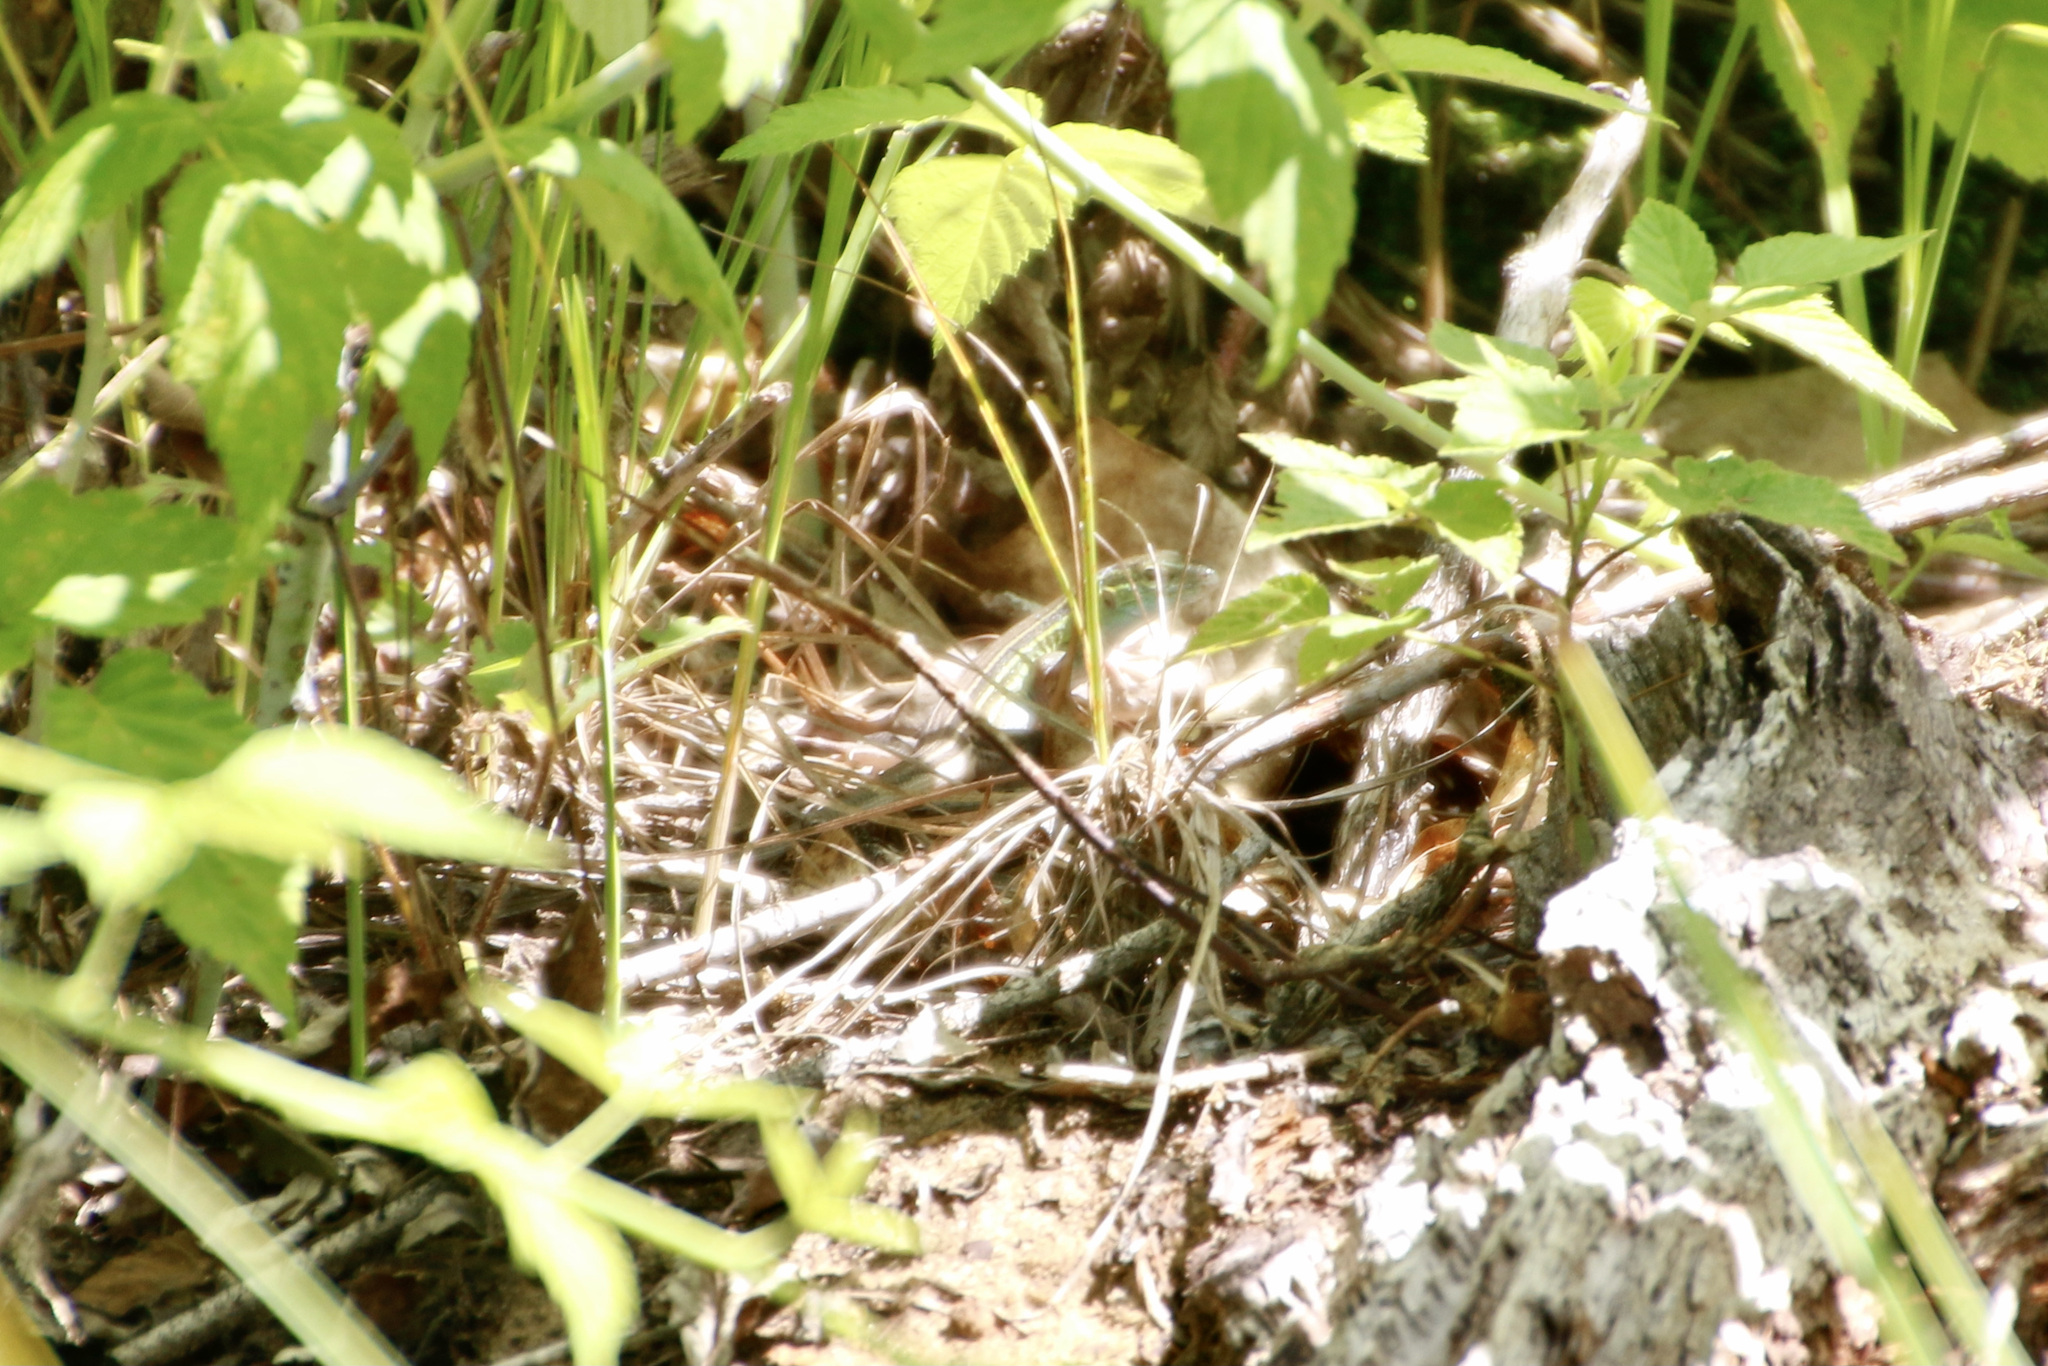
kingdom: Animalia
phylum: Chordata
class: Squamata
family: Teiidae
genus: Aspidoscelis
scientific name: Aspidoscelis sexlineatus
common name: Six-lined racerunner
